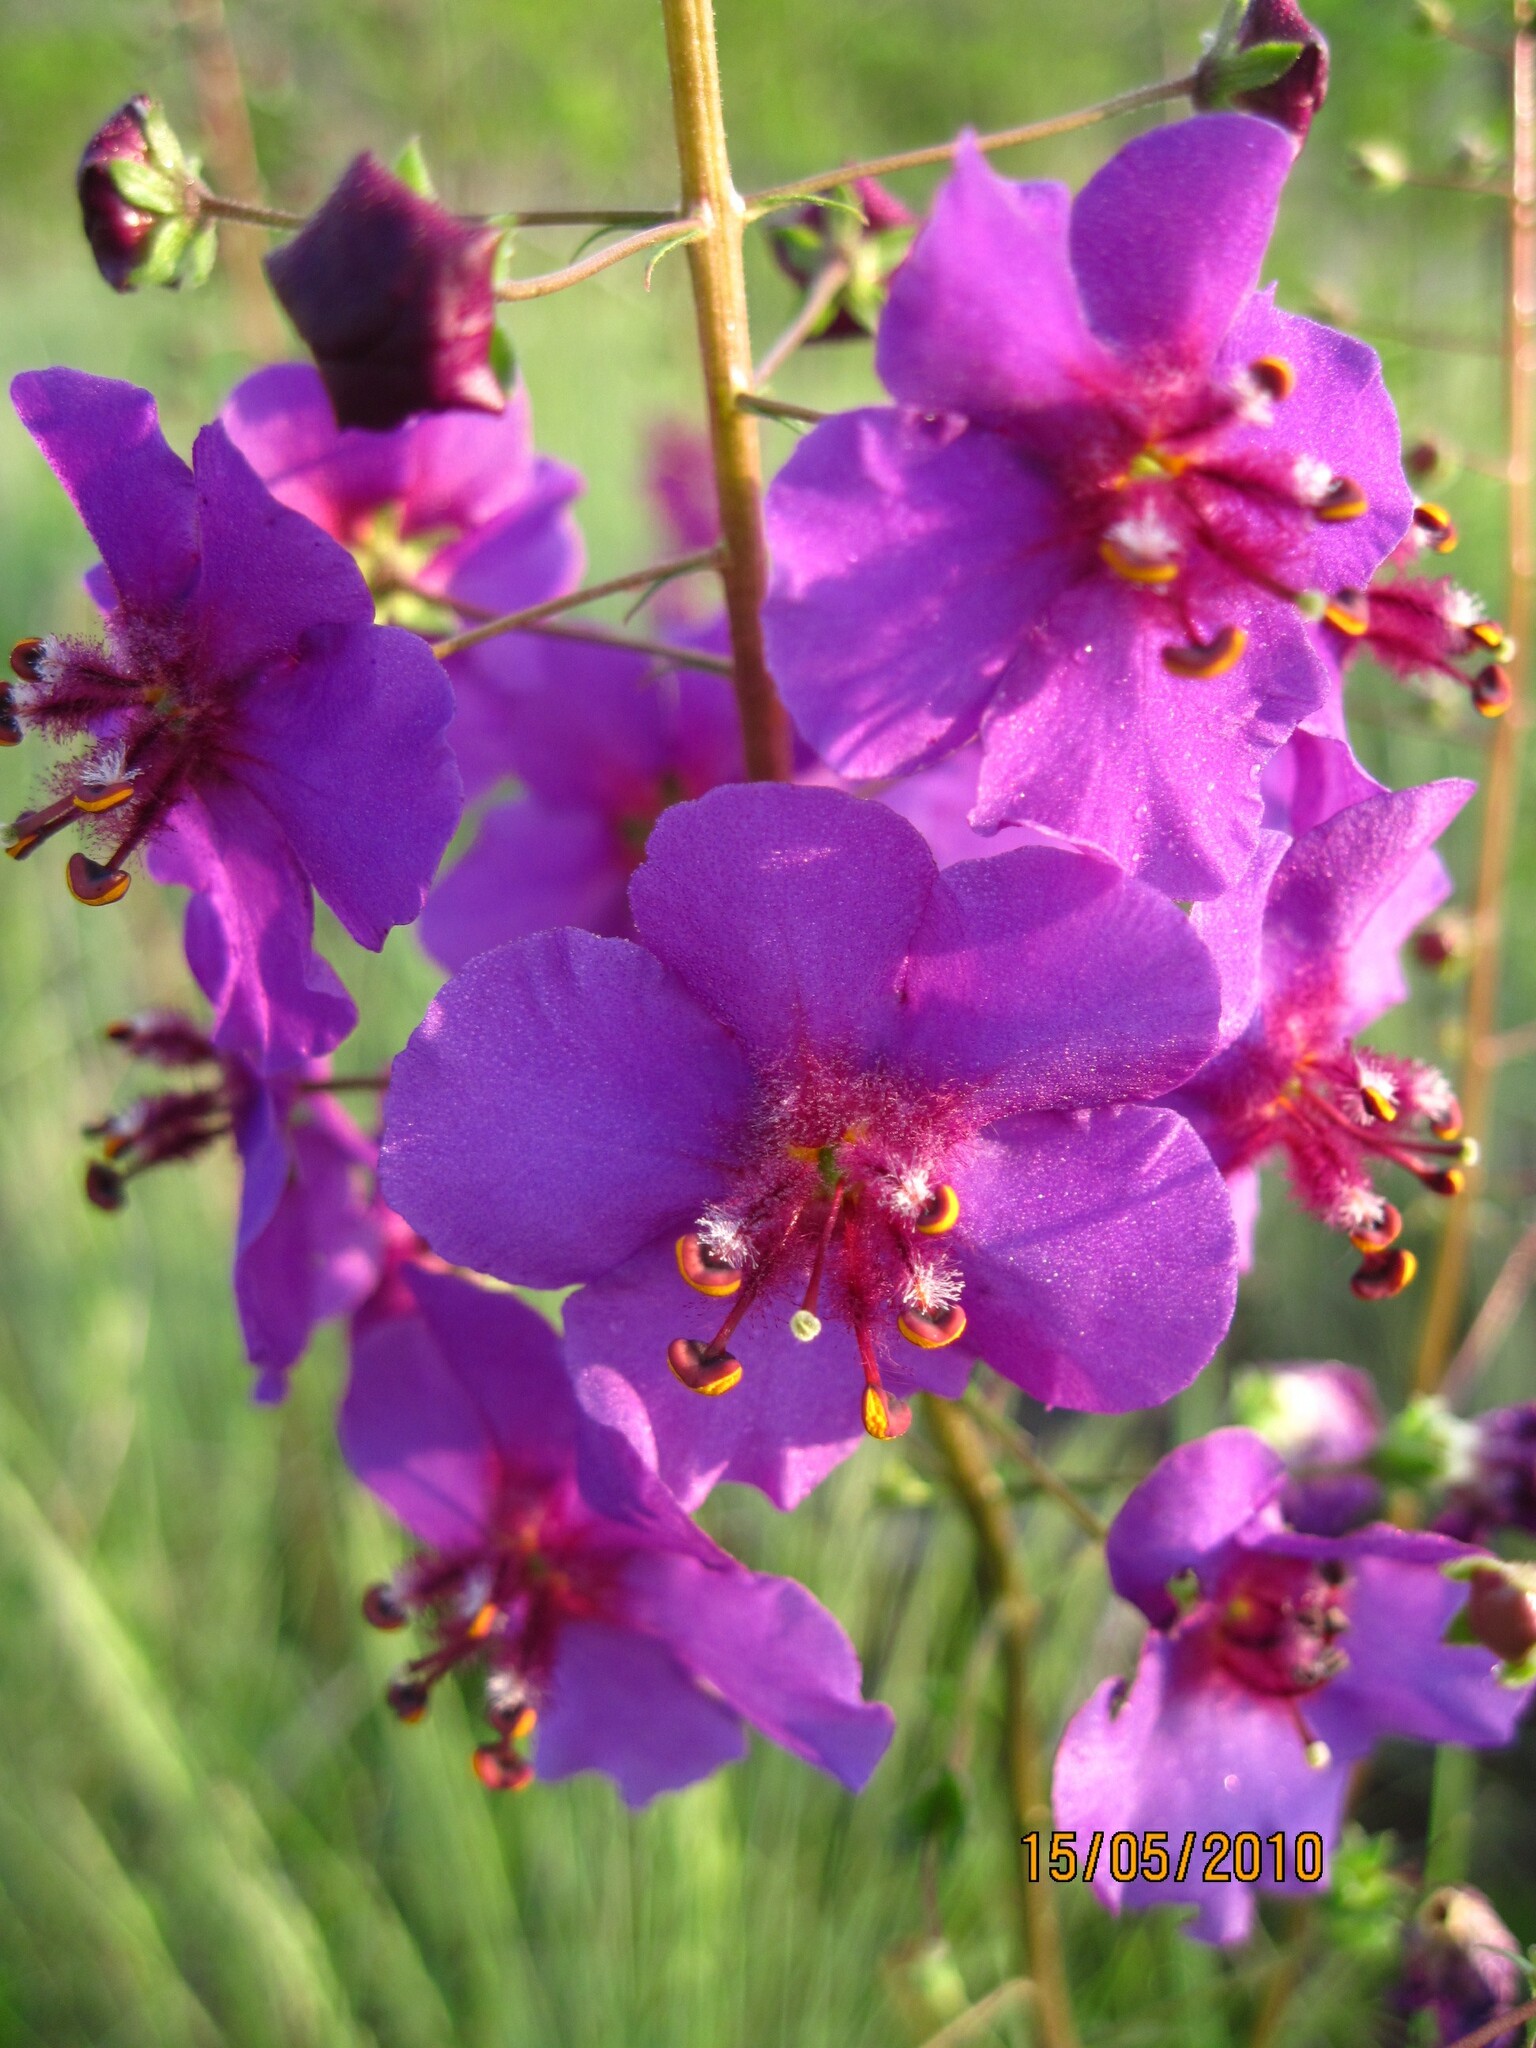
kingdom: Plantae
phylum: Tracheophyta
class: Magnoliopsida
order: Lamiales
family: Scrophulariaceae
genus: Verbascum
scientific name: Verbascum phoeniceum
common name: Purple mullein
